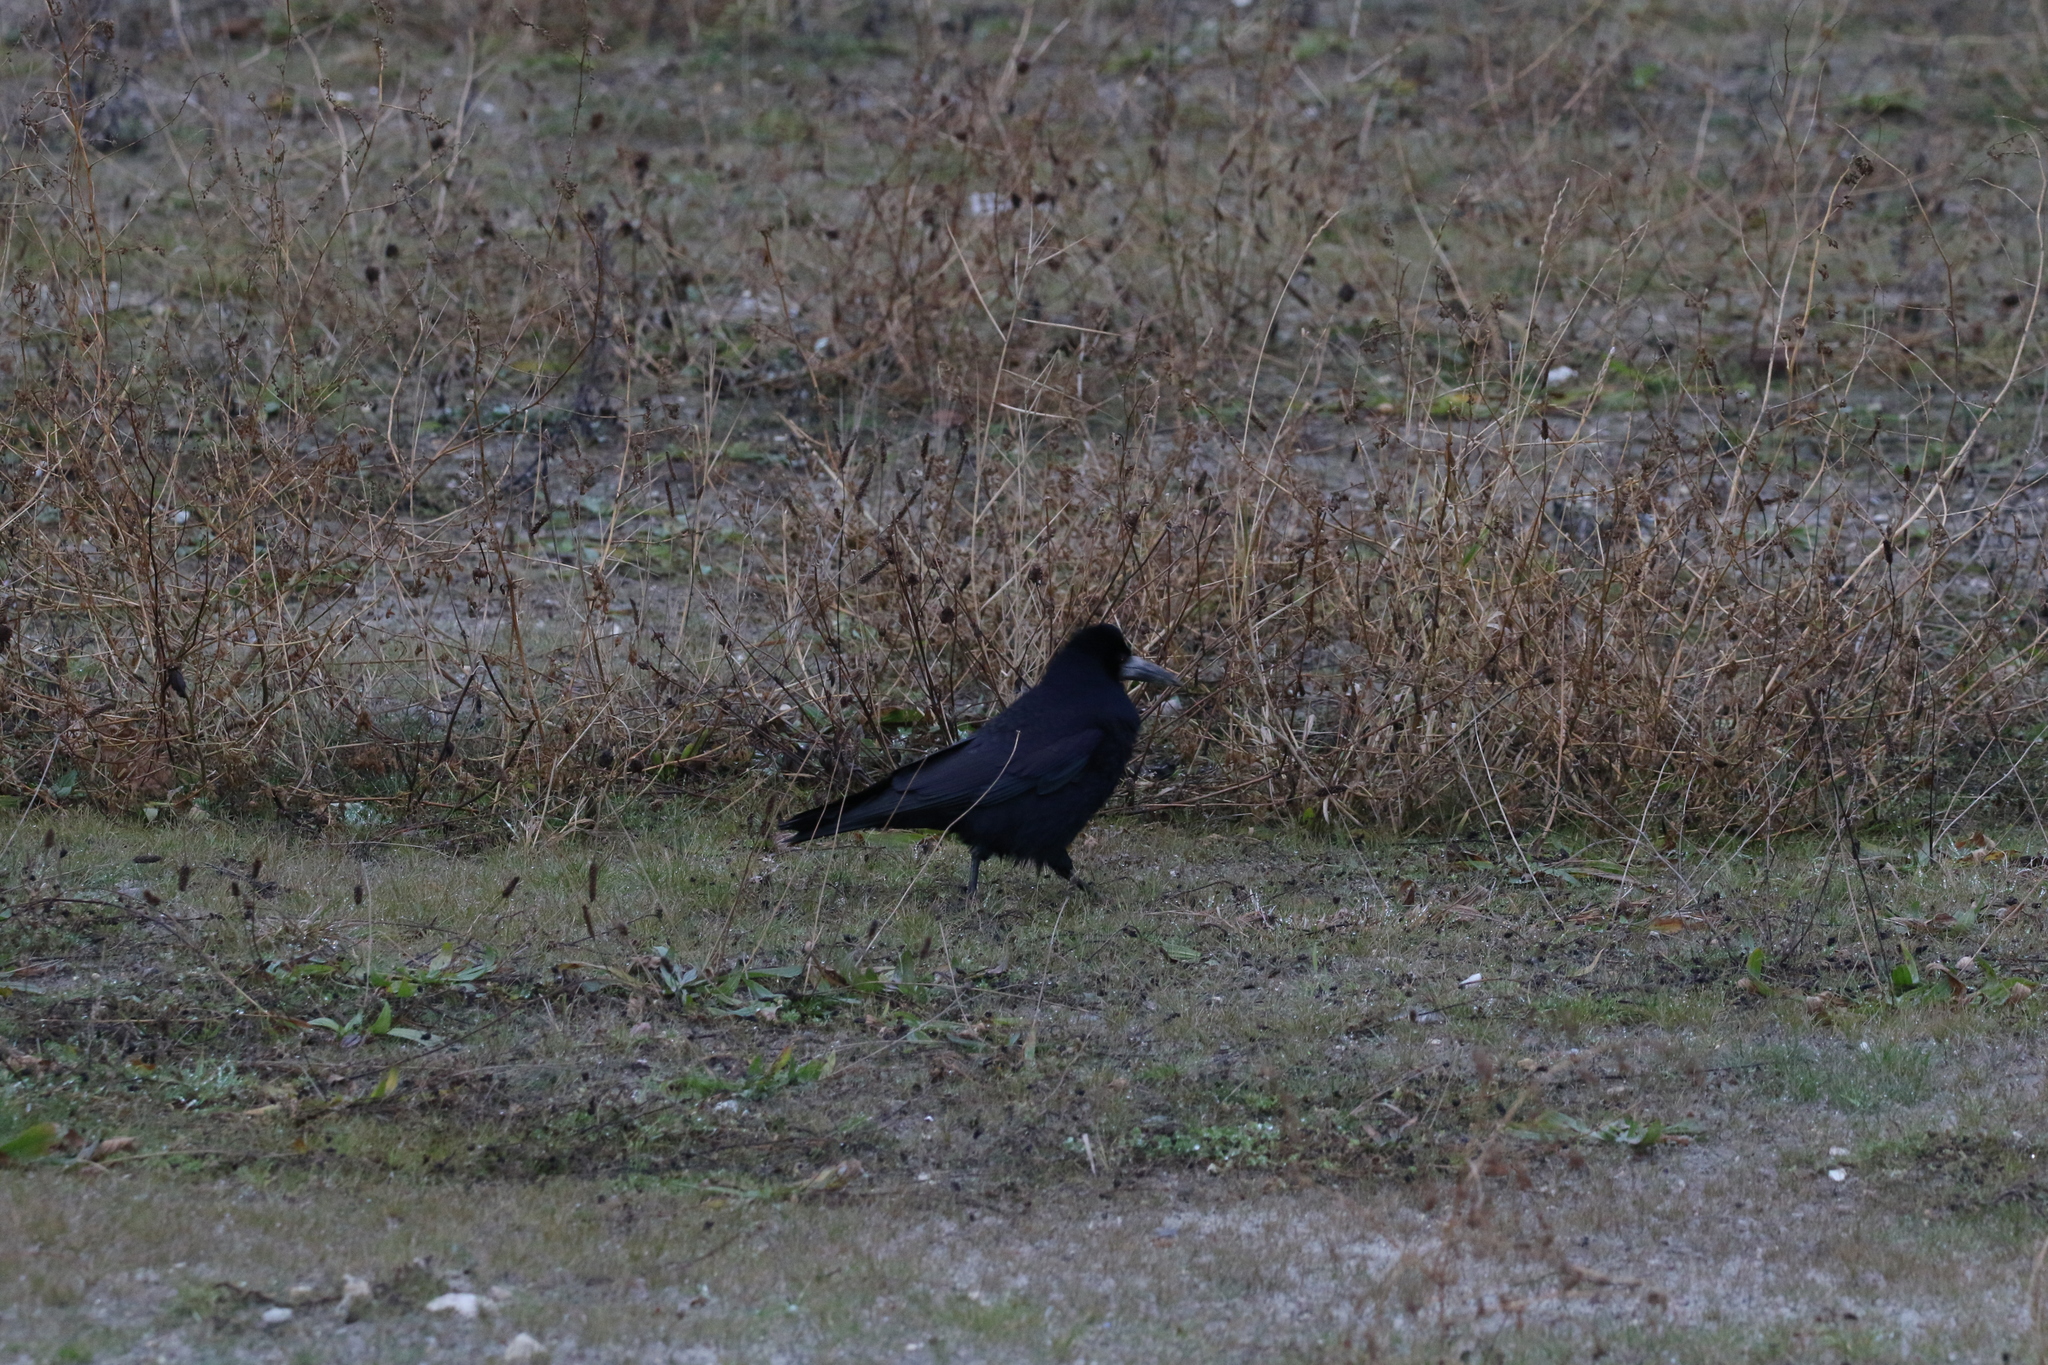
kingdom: Animalia
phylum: Chordata
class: Aves
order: Passeriformes
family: Corvidae
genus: Corvus
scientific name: Corvus frugilegus
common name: Rook
